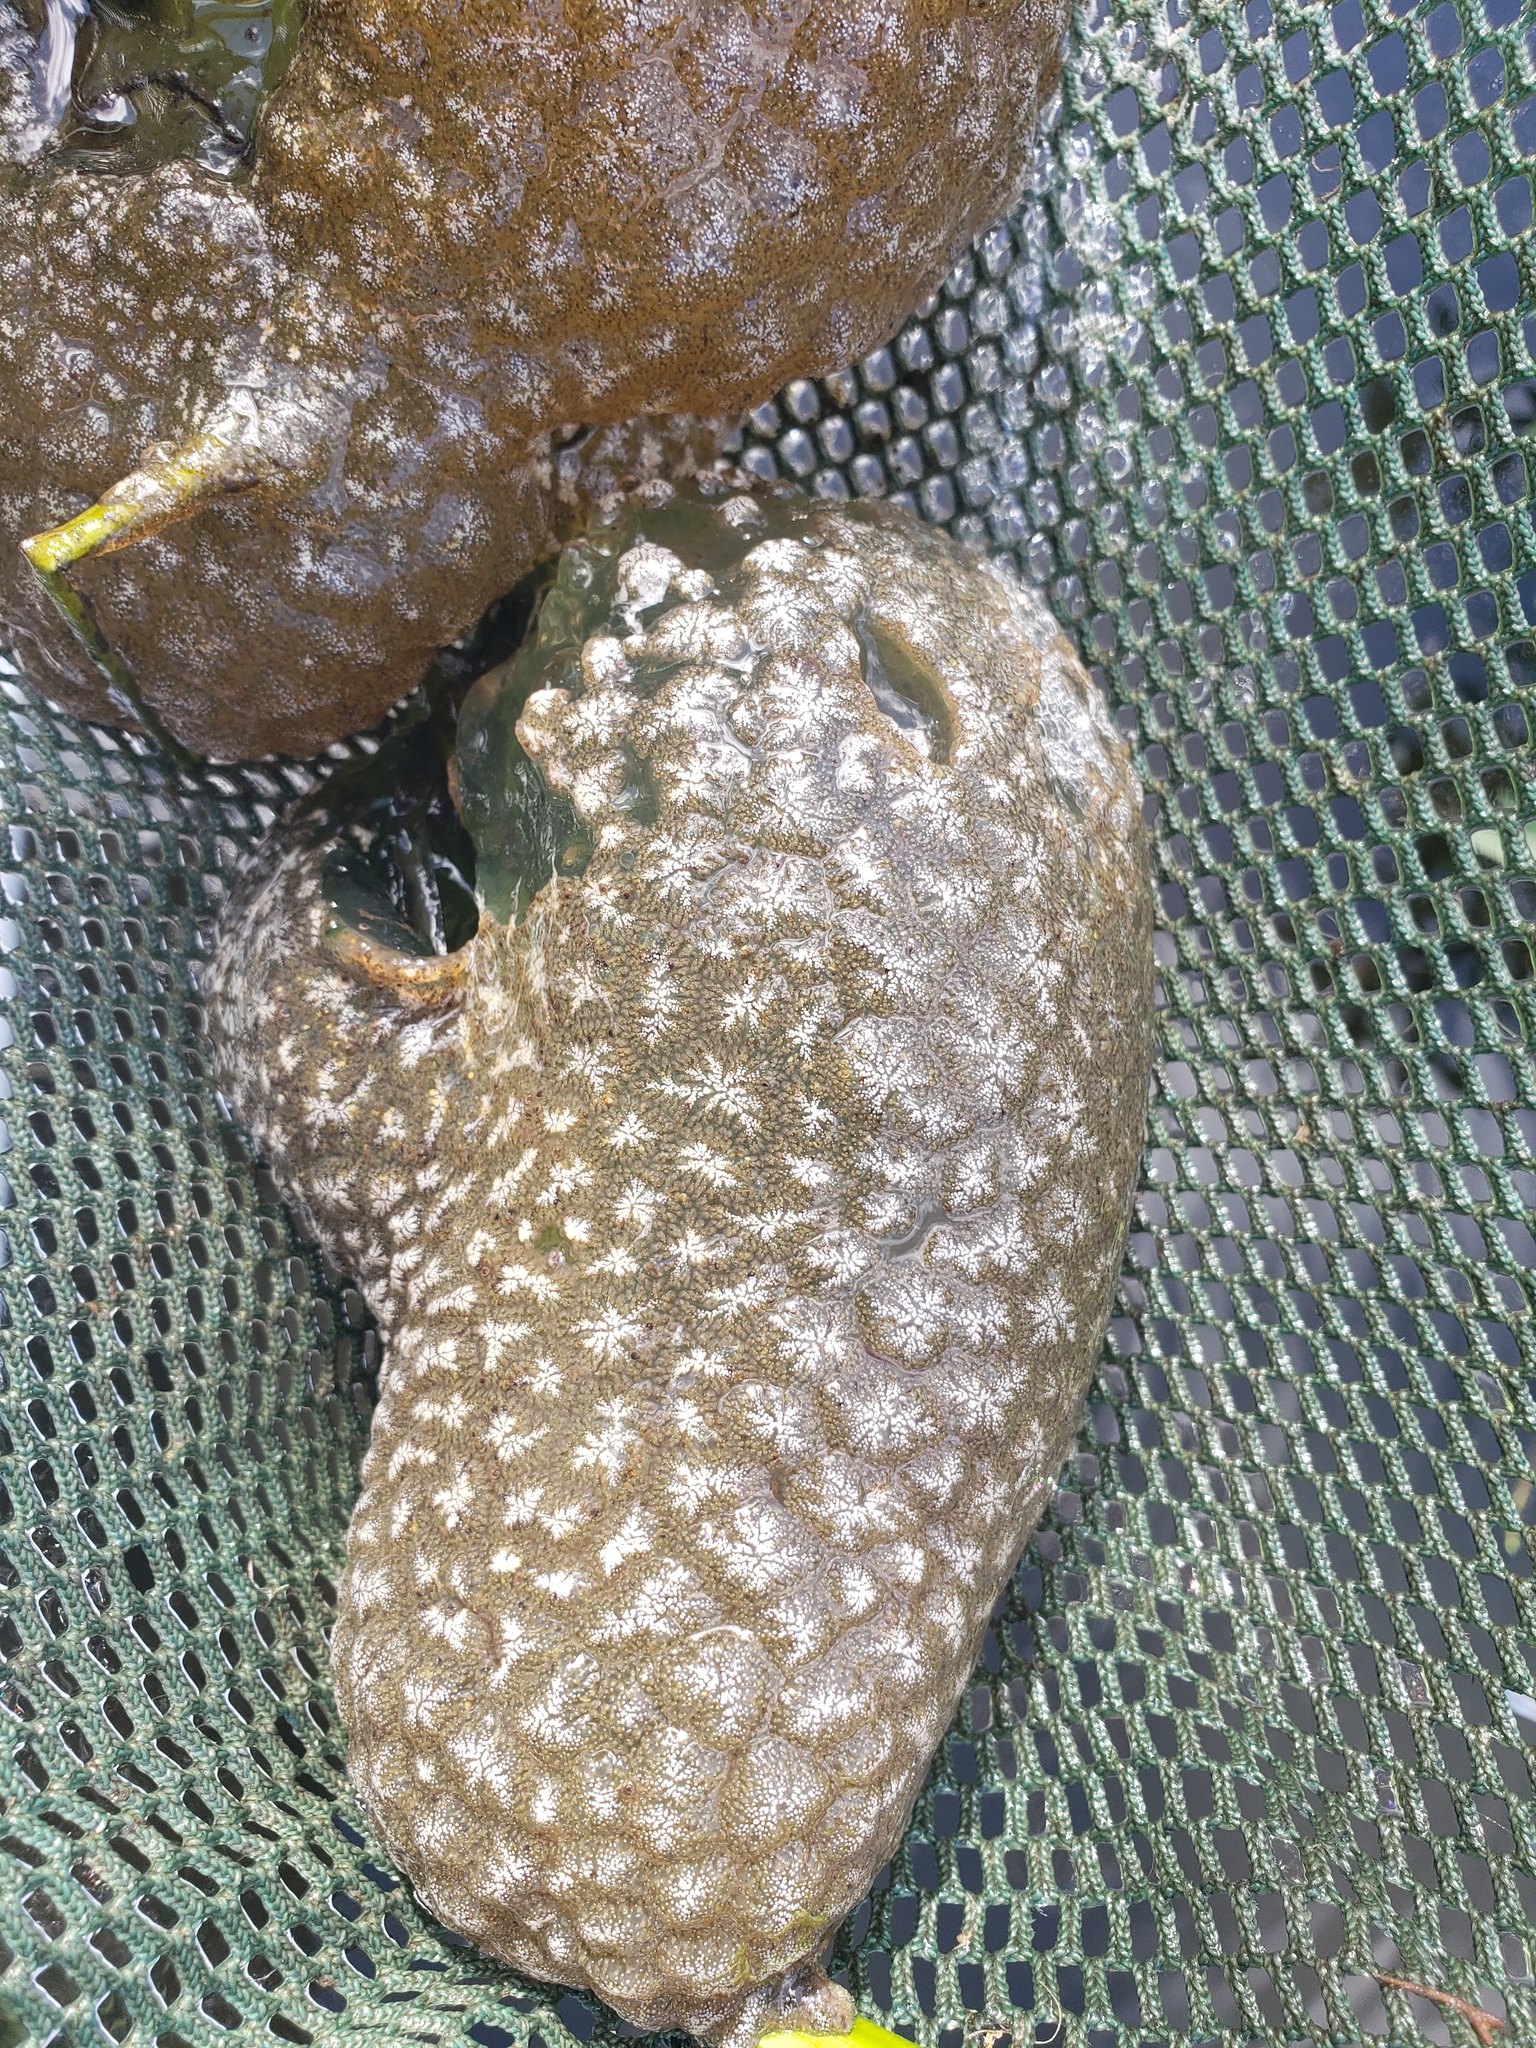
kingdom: Animalia
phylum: Bryozoa
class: Phylactolaemata
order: Plumatellida
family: Pectinatellidae
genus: Pectinatella
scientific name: Pectinatella magnifica
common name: Magnificent bryozoan
